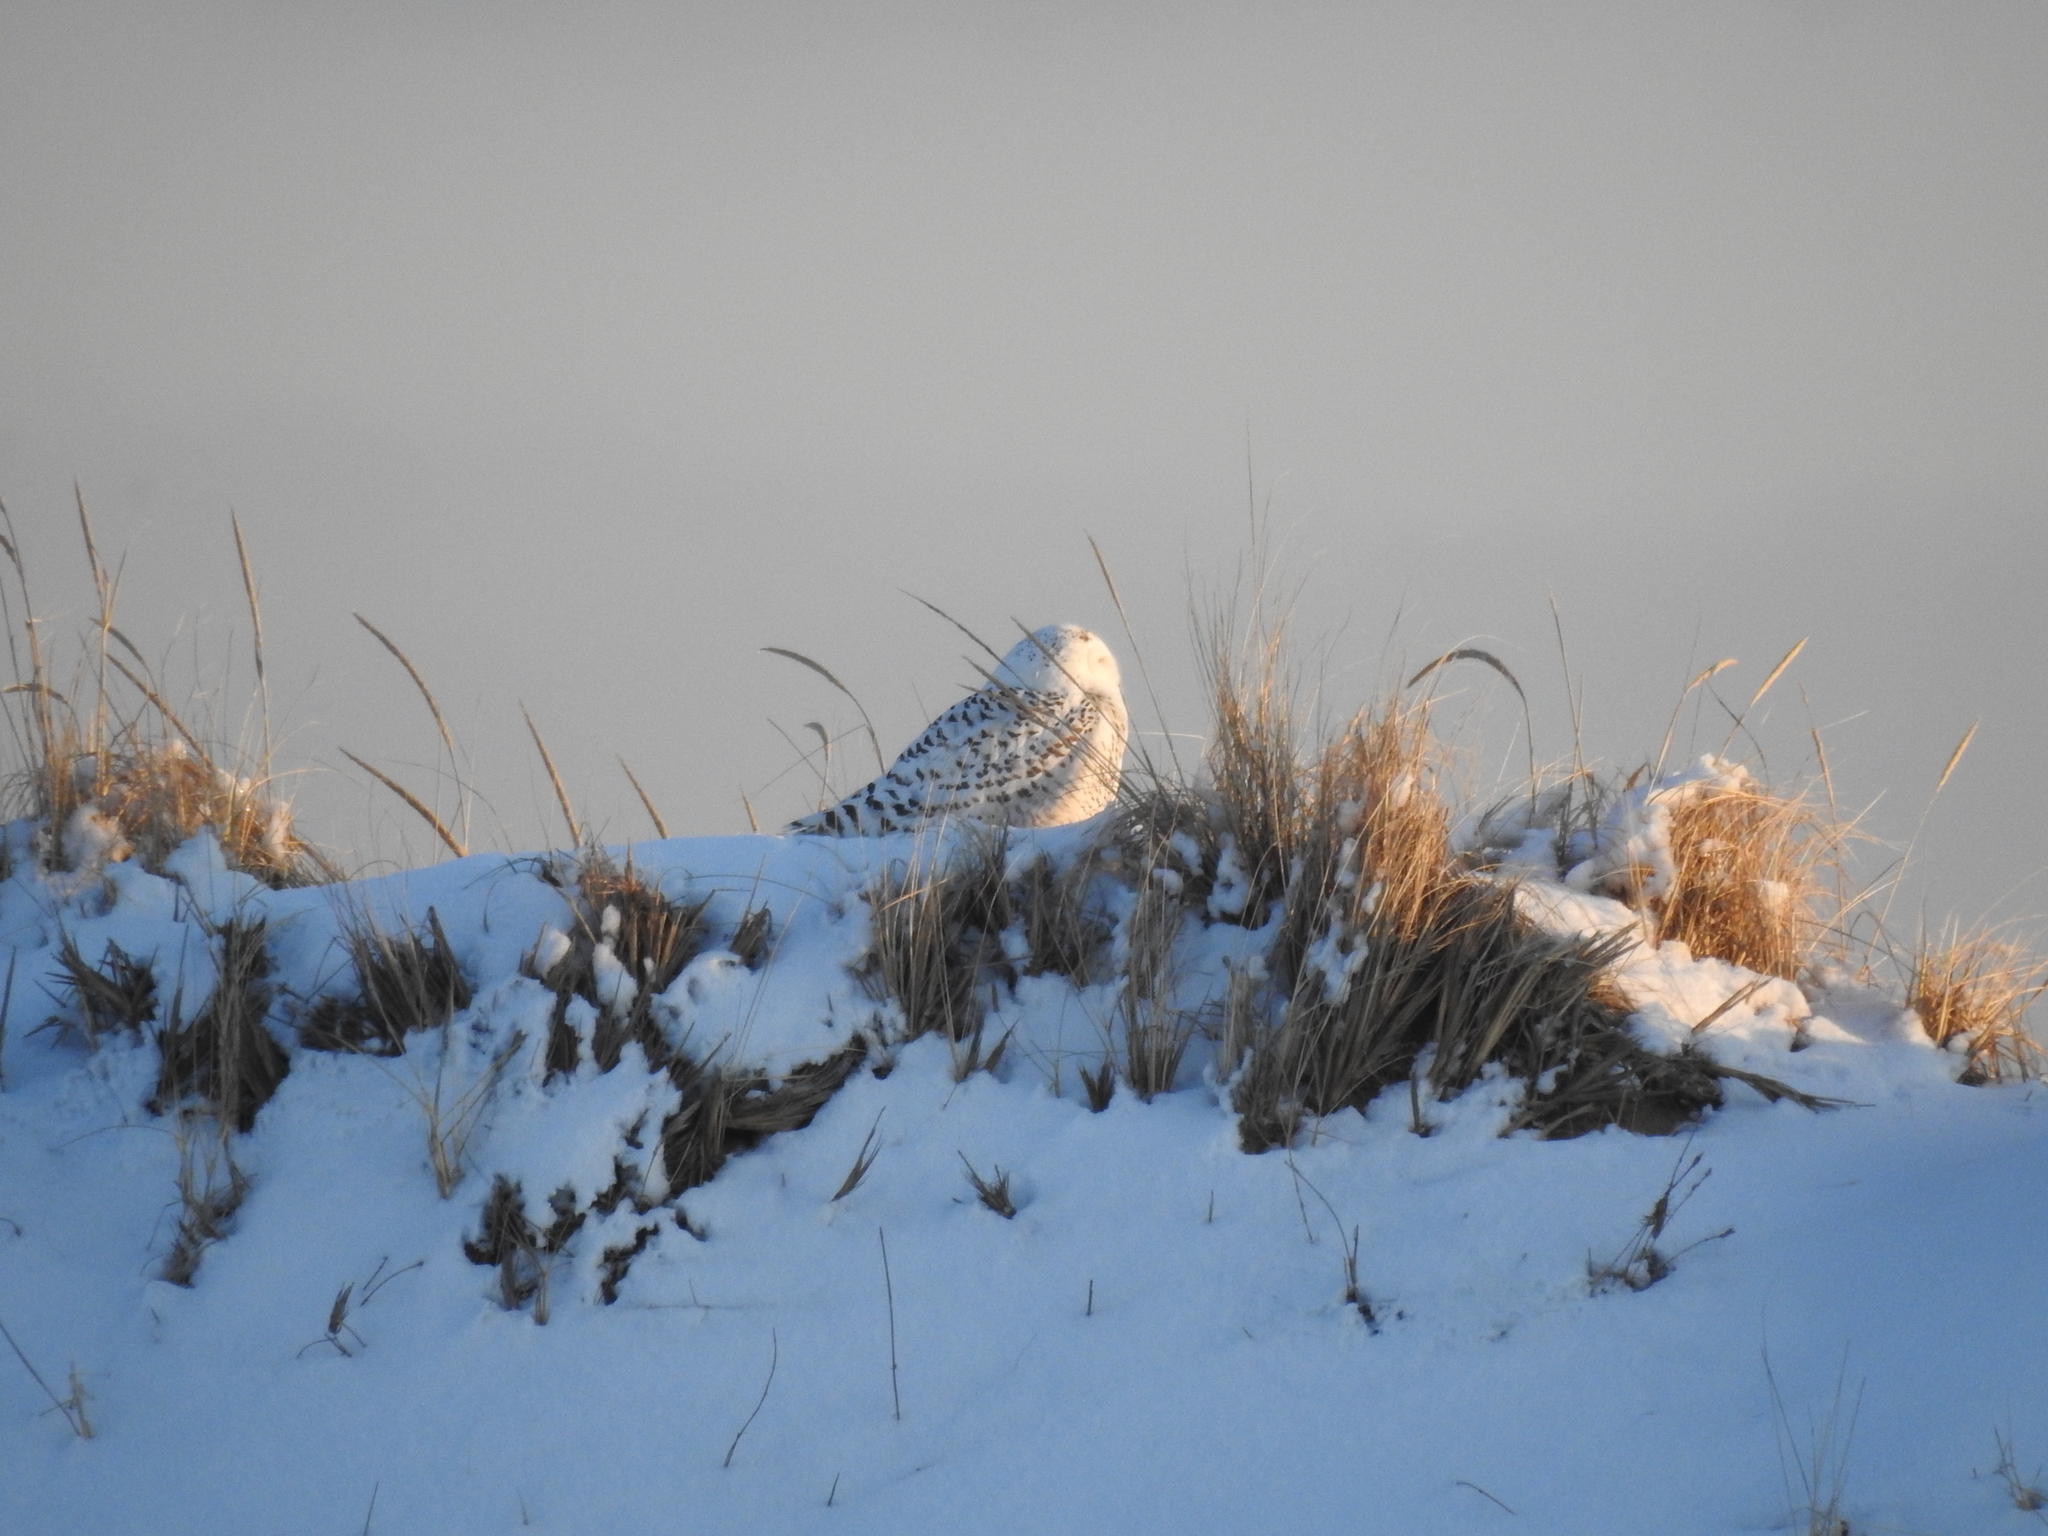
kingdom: Animalia
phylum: Chordata
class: Aves
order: Strigiformes
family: Strigidae
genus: Bubo
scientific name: Bubo scandiacus
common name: Snowy owl
